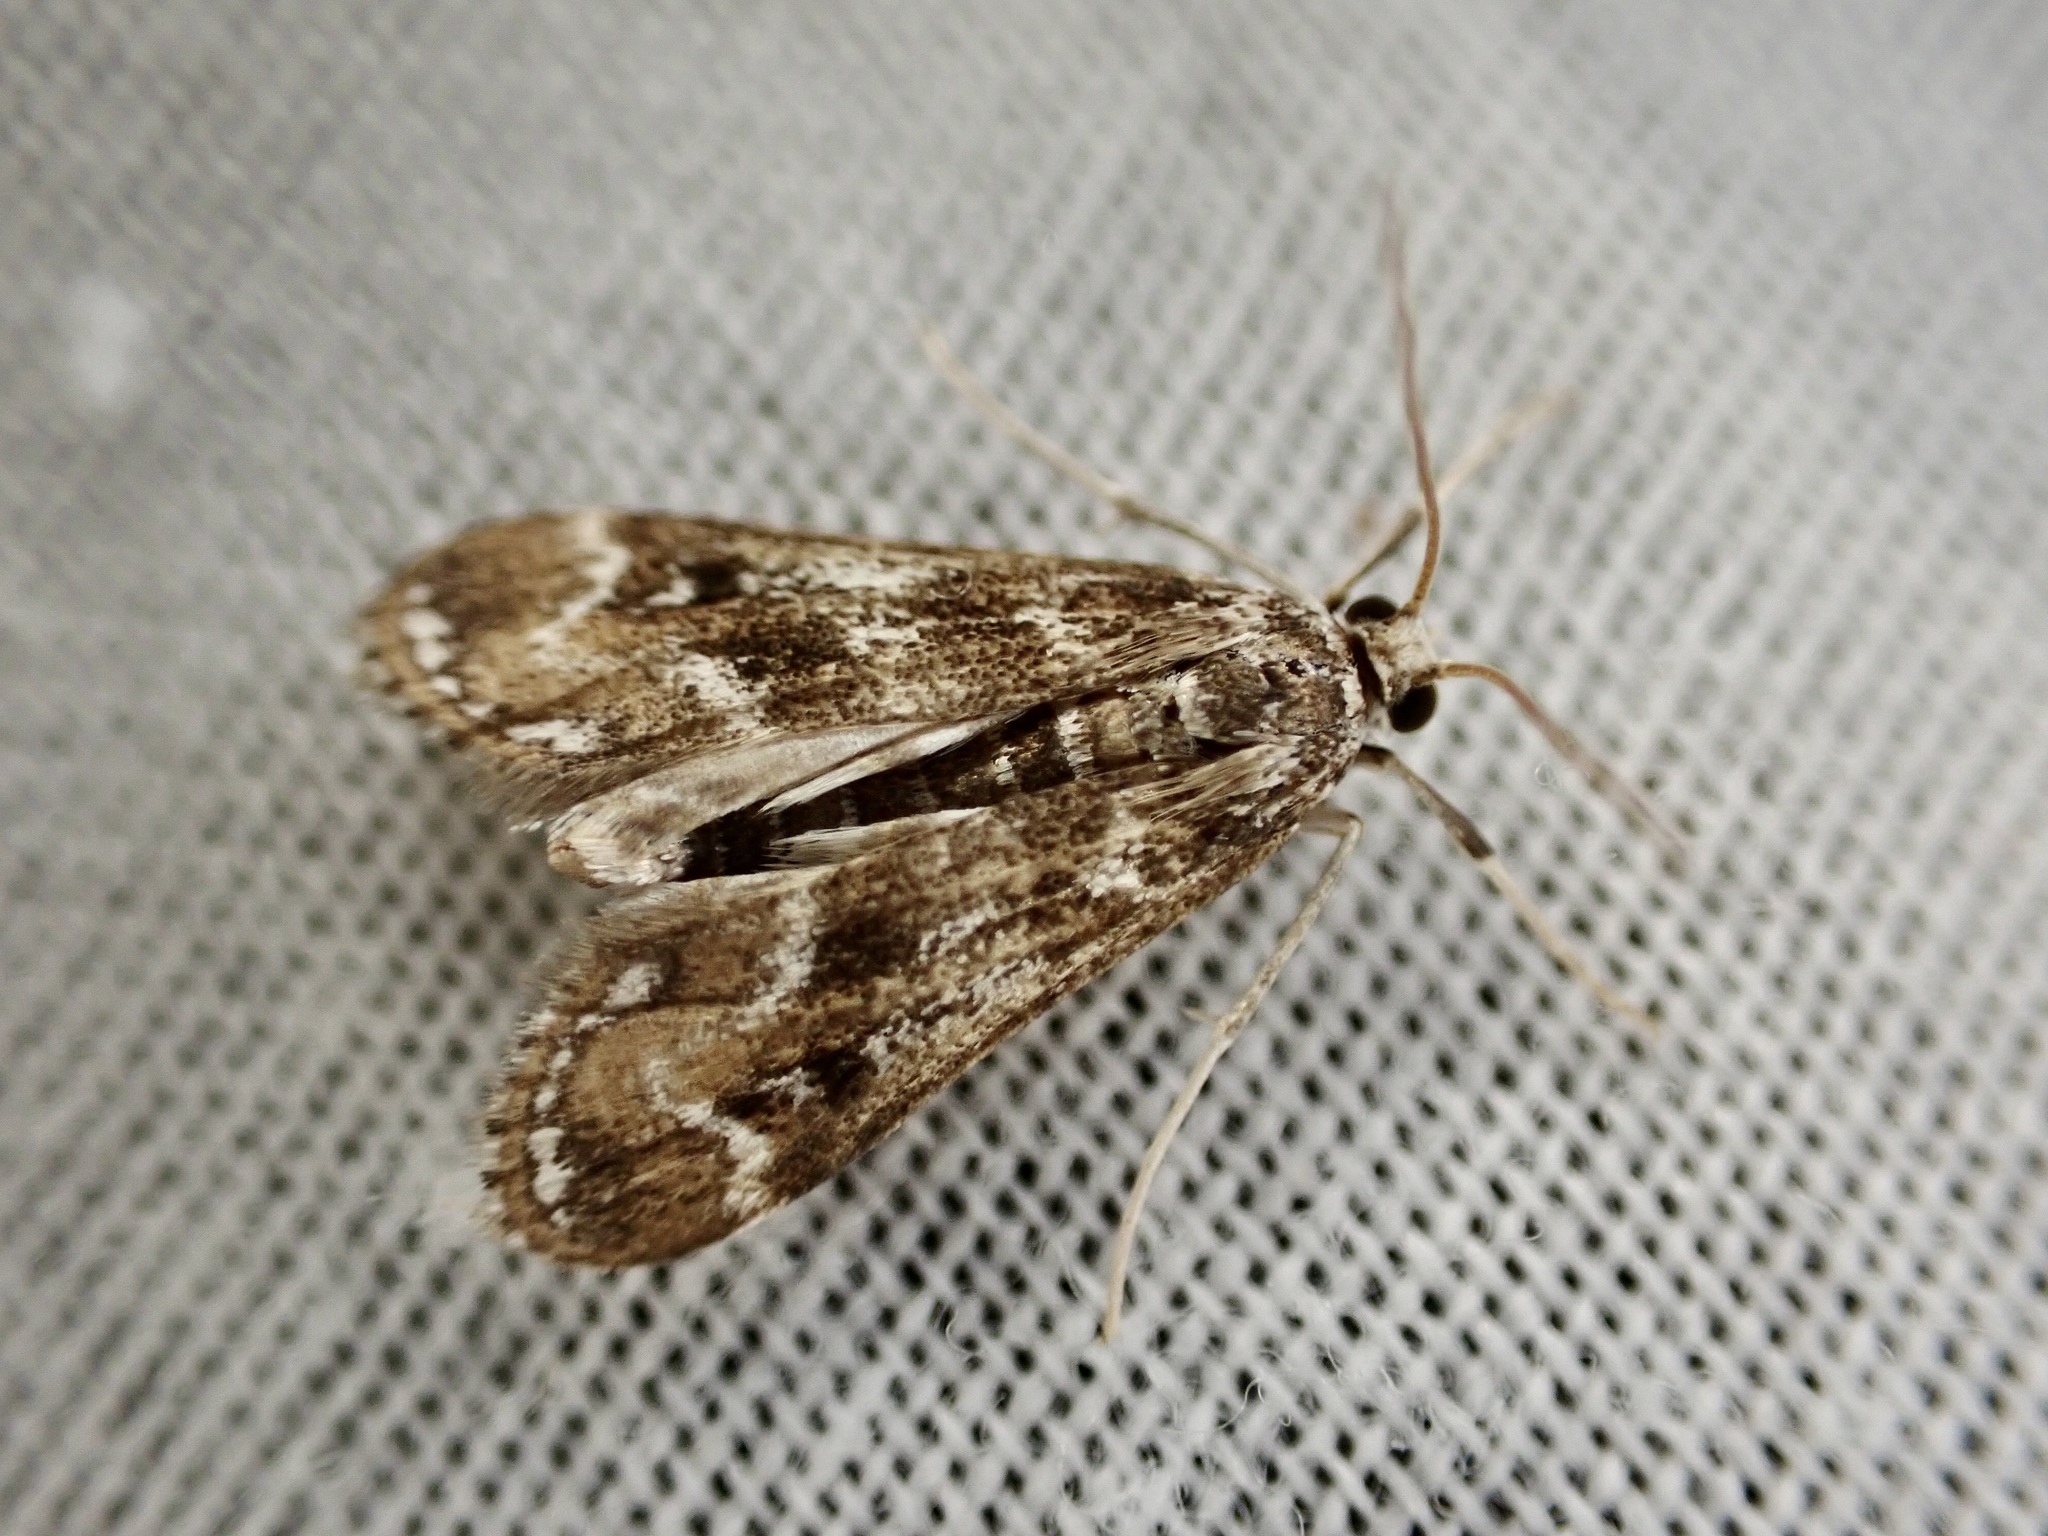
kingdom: Animalia
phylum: Arthropoda
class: Insecta
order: Lepidoptera
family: Crambidae
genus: Hygraula
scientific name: Hygraula nitens
